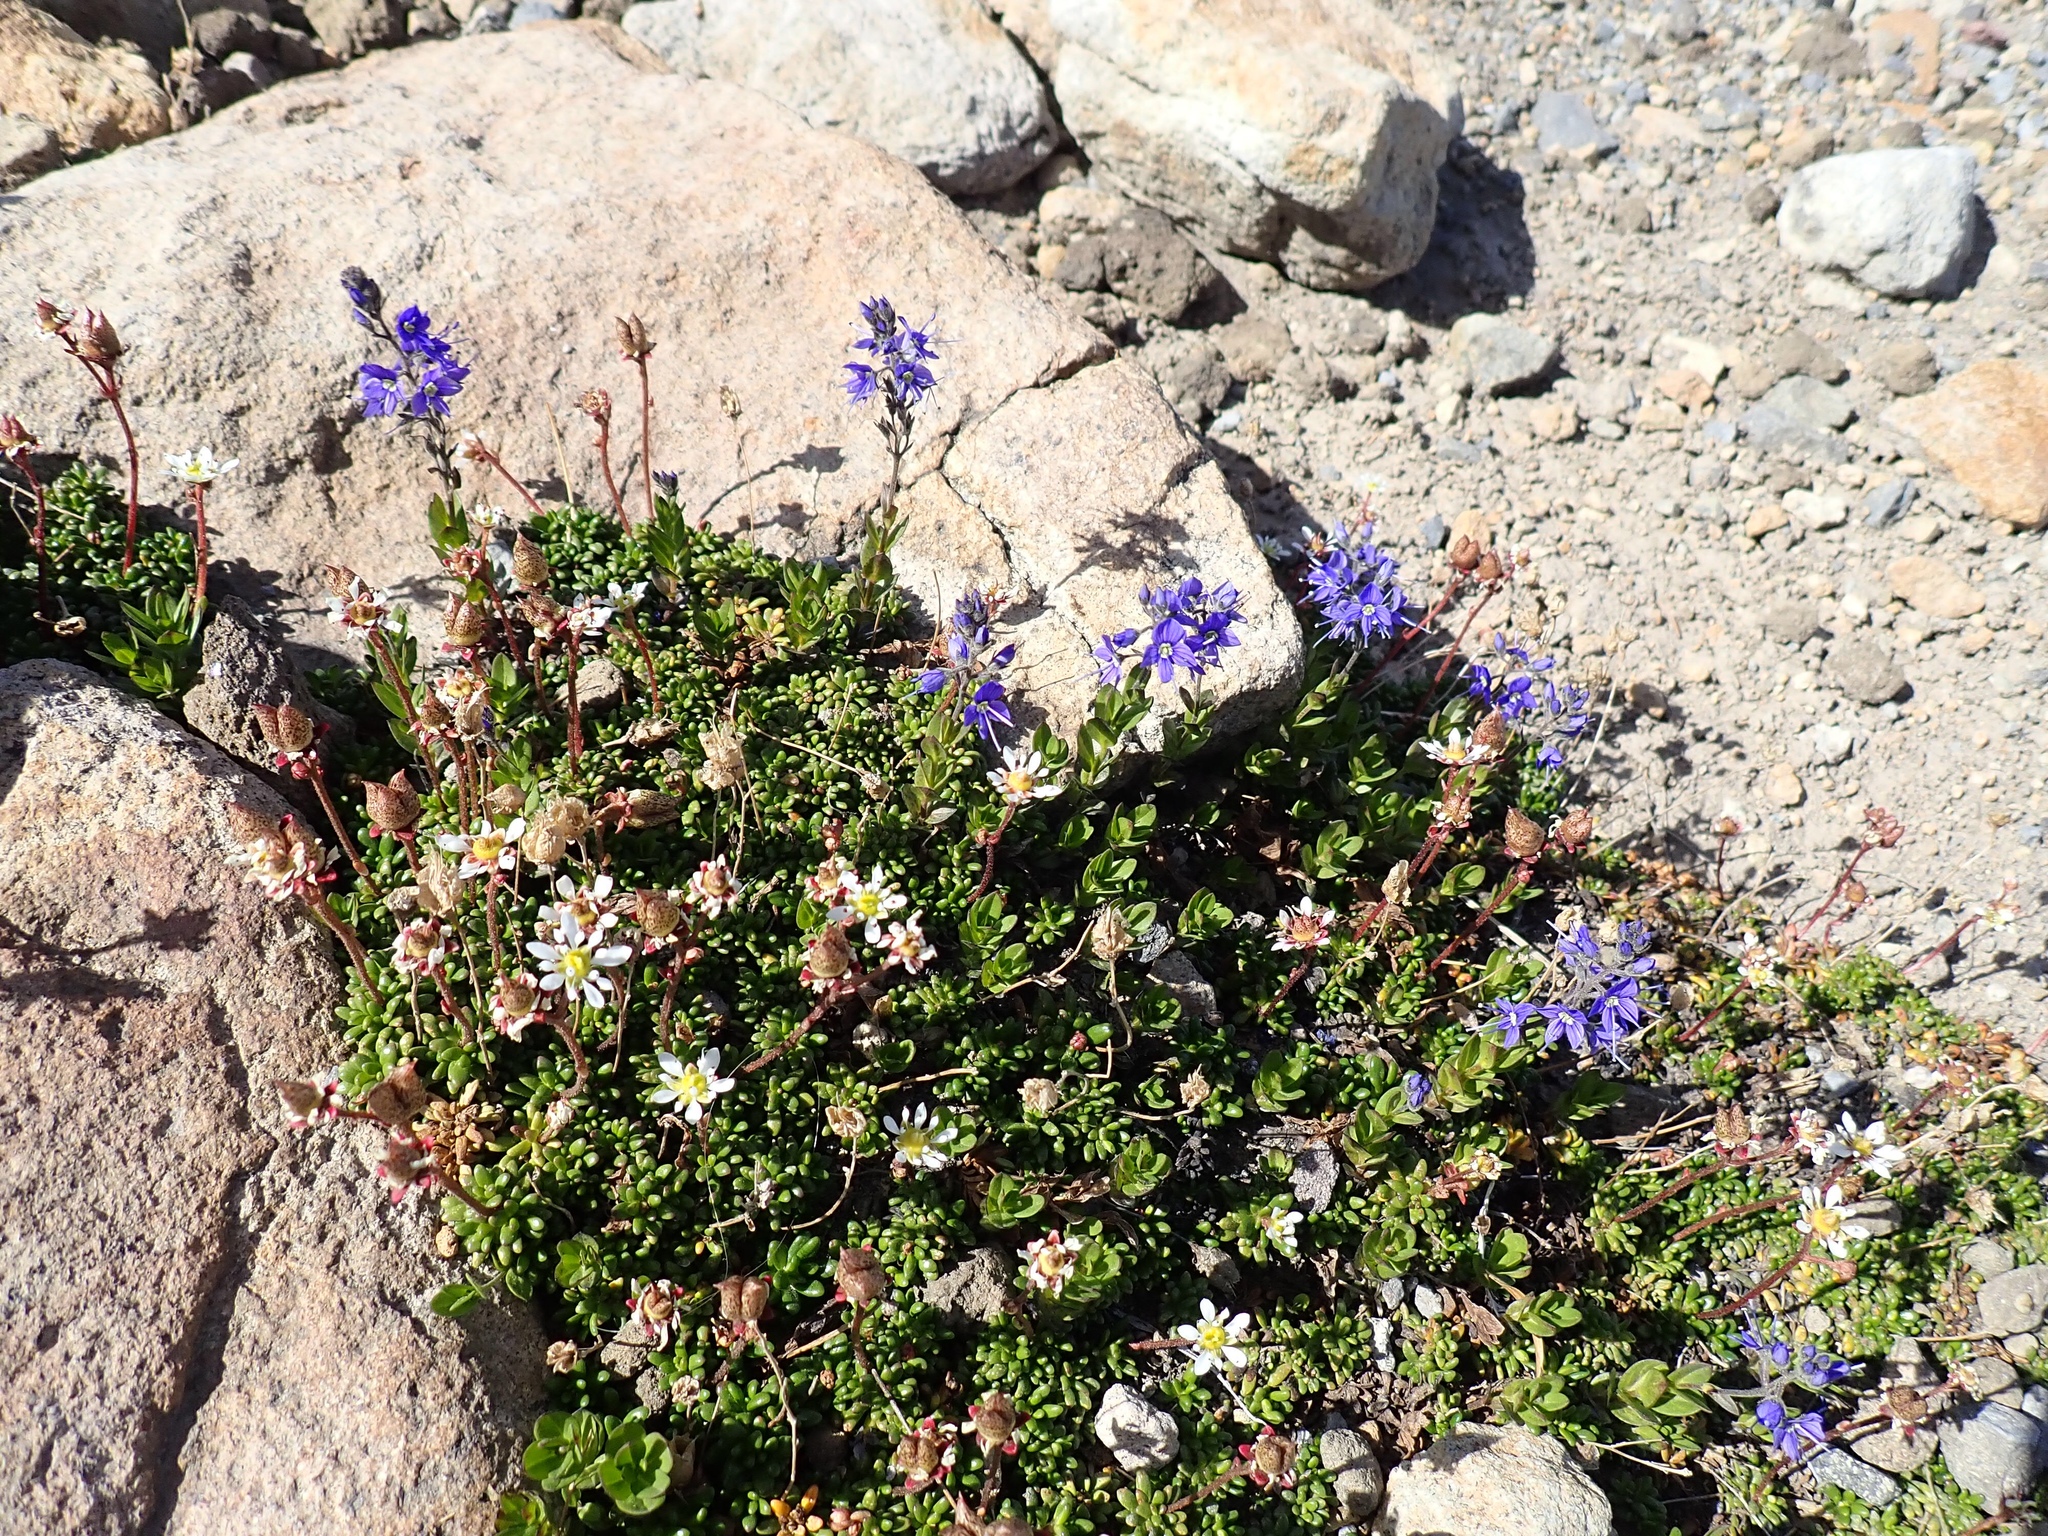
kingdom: Plantae
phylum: Tracheophyta
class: Magnoliopsida
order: Lamiales
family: Plantaginaceae
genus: Veronica
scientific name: Veronica cusickii
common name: Cusick's speedwell
